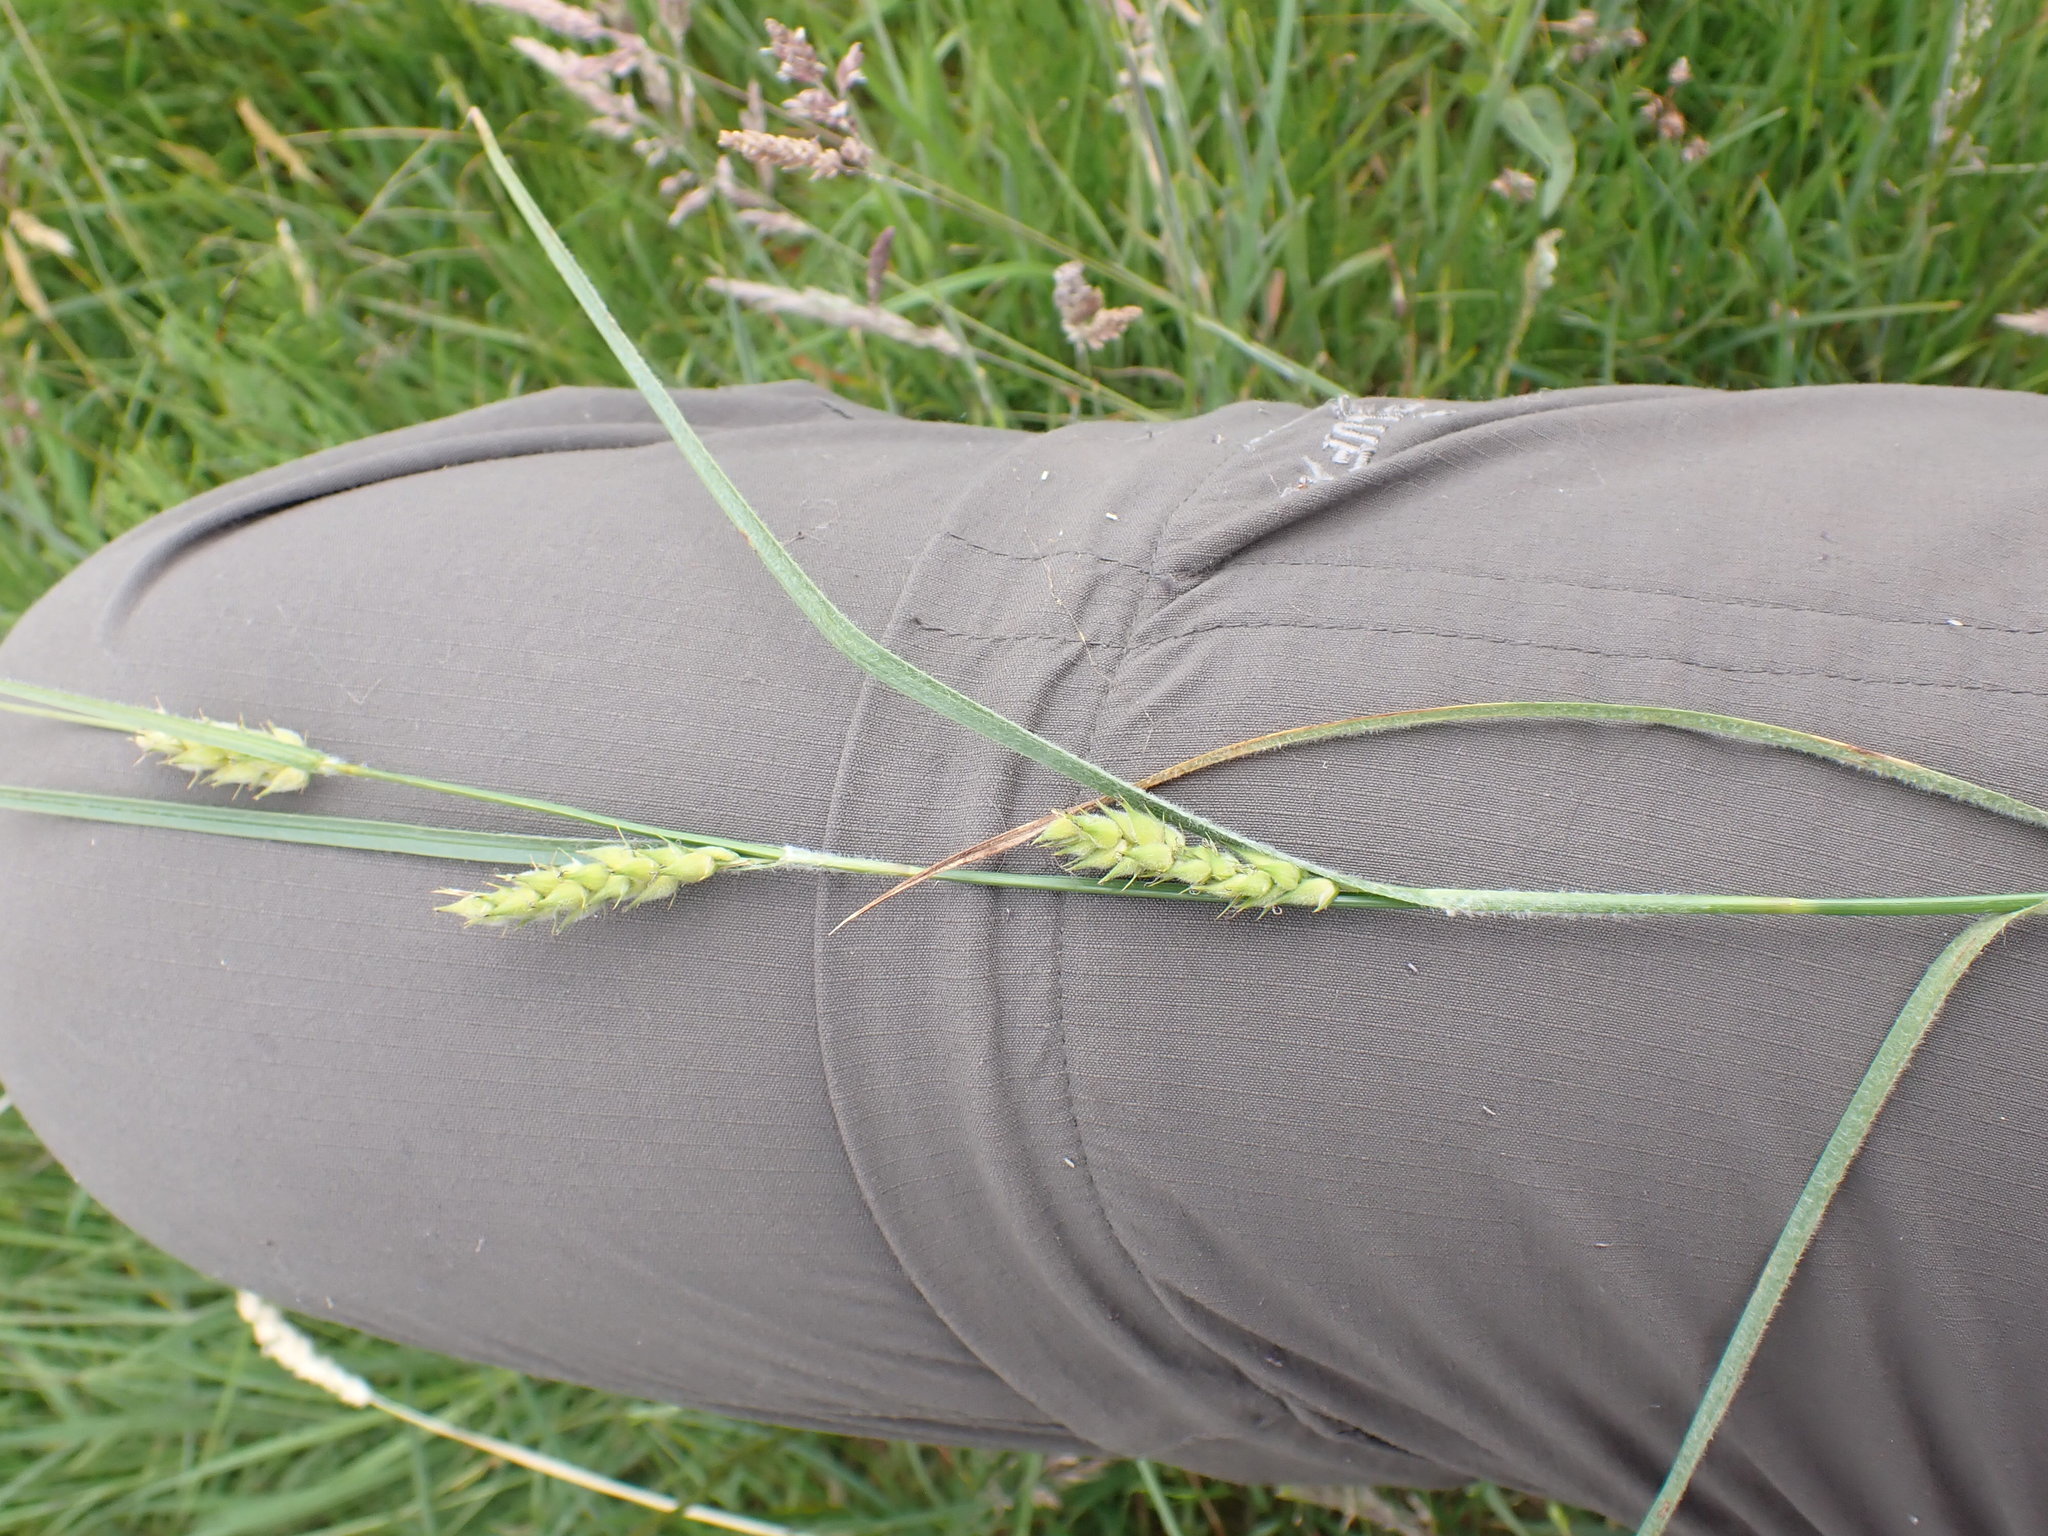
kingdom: Plantae
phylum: Tracheophyta
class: Liliopsida
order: Poales
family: Cyperaceae
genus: Carex
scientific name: Carex hirta
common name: Hairy sedge
